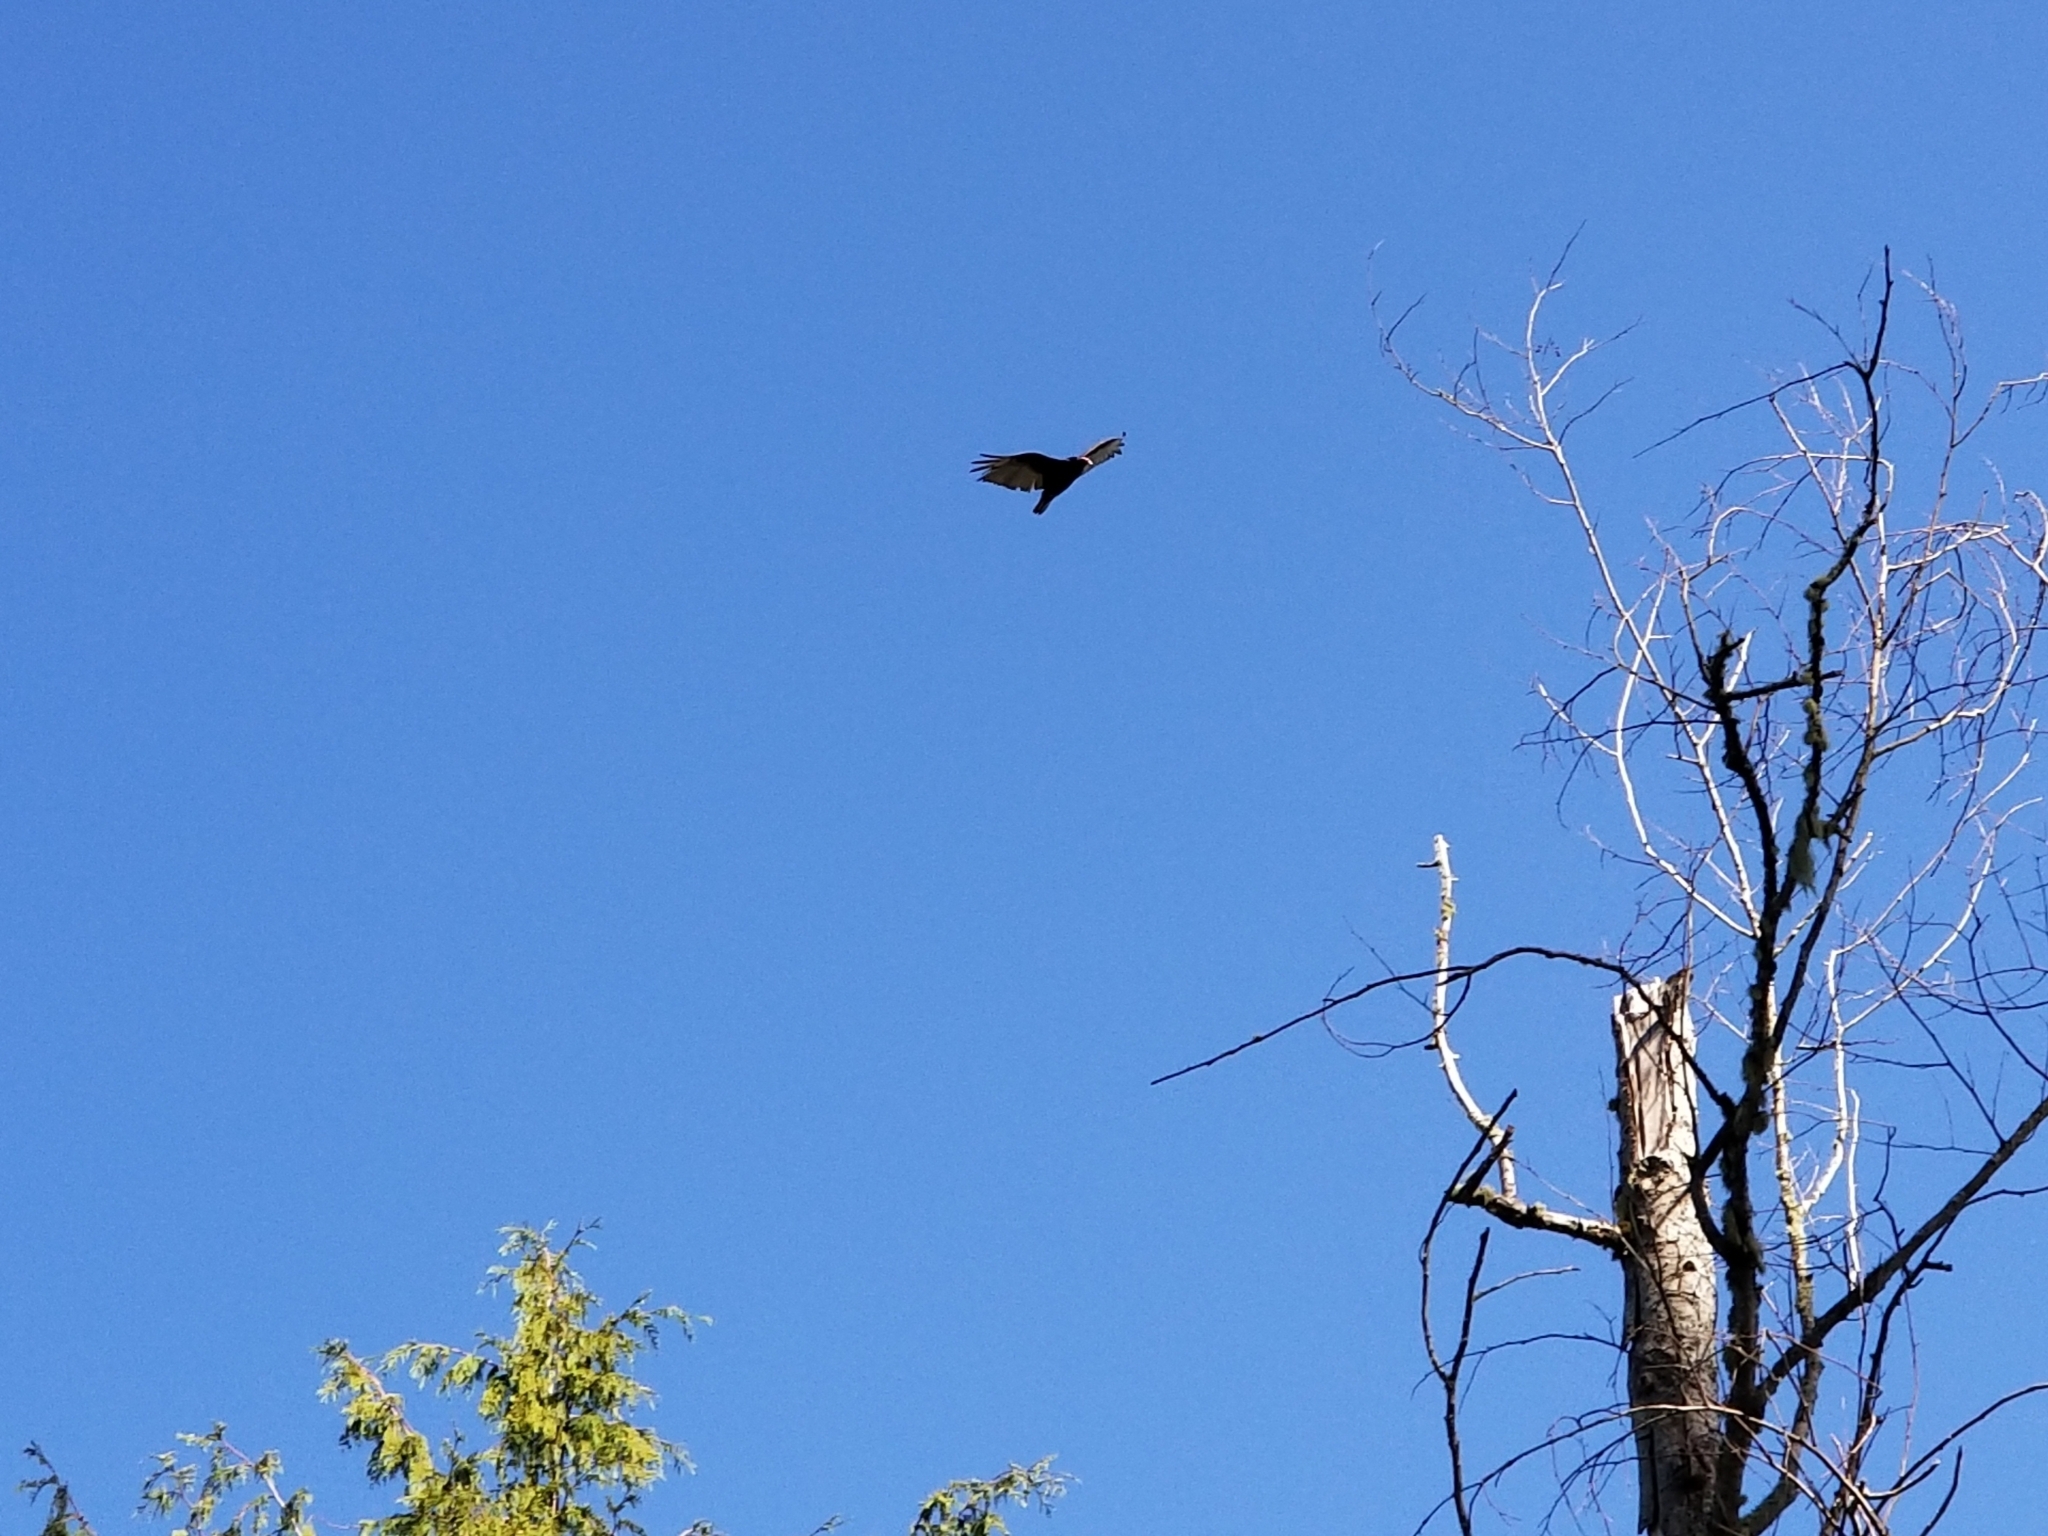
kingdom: Animalia
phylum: Chordata
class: Aves
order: Accipitriformes
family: Cathartidae
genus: Cathartes
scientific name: Cathartes aura
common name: Turkey vulture
